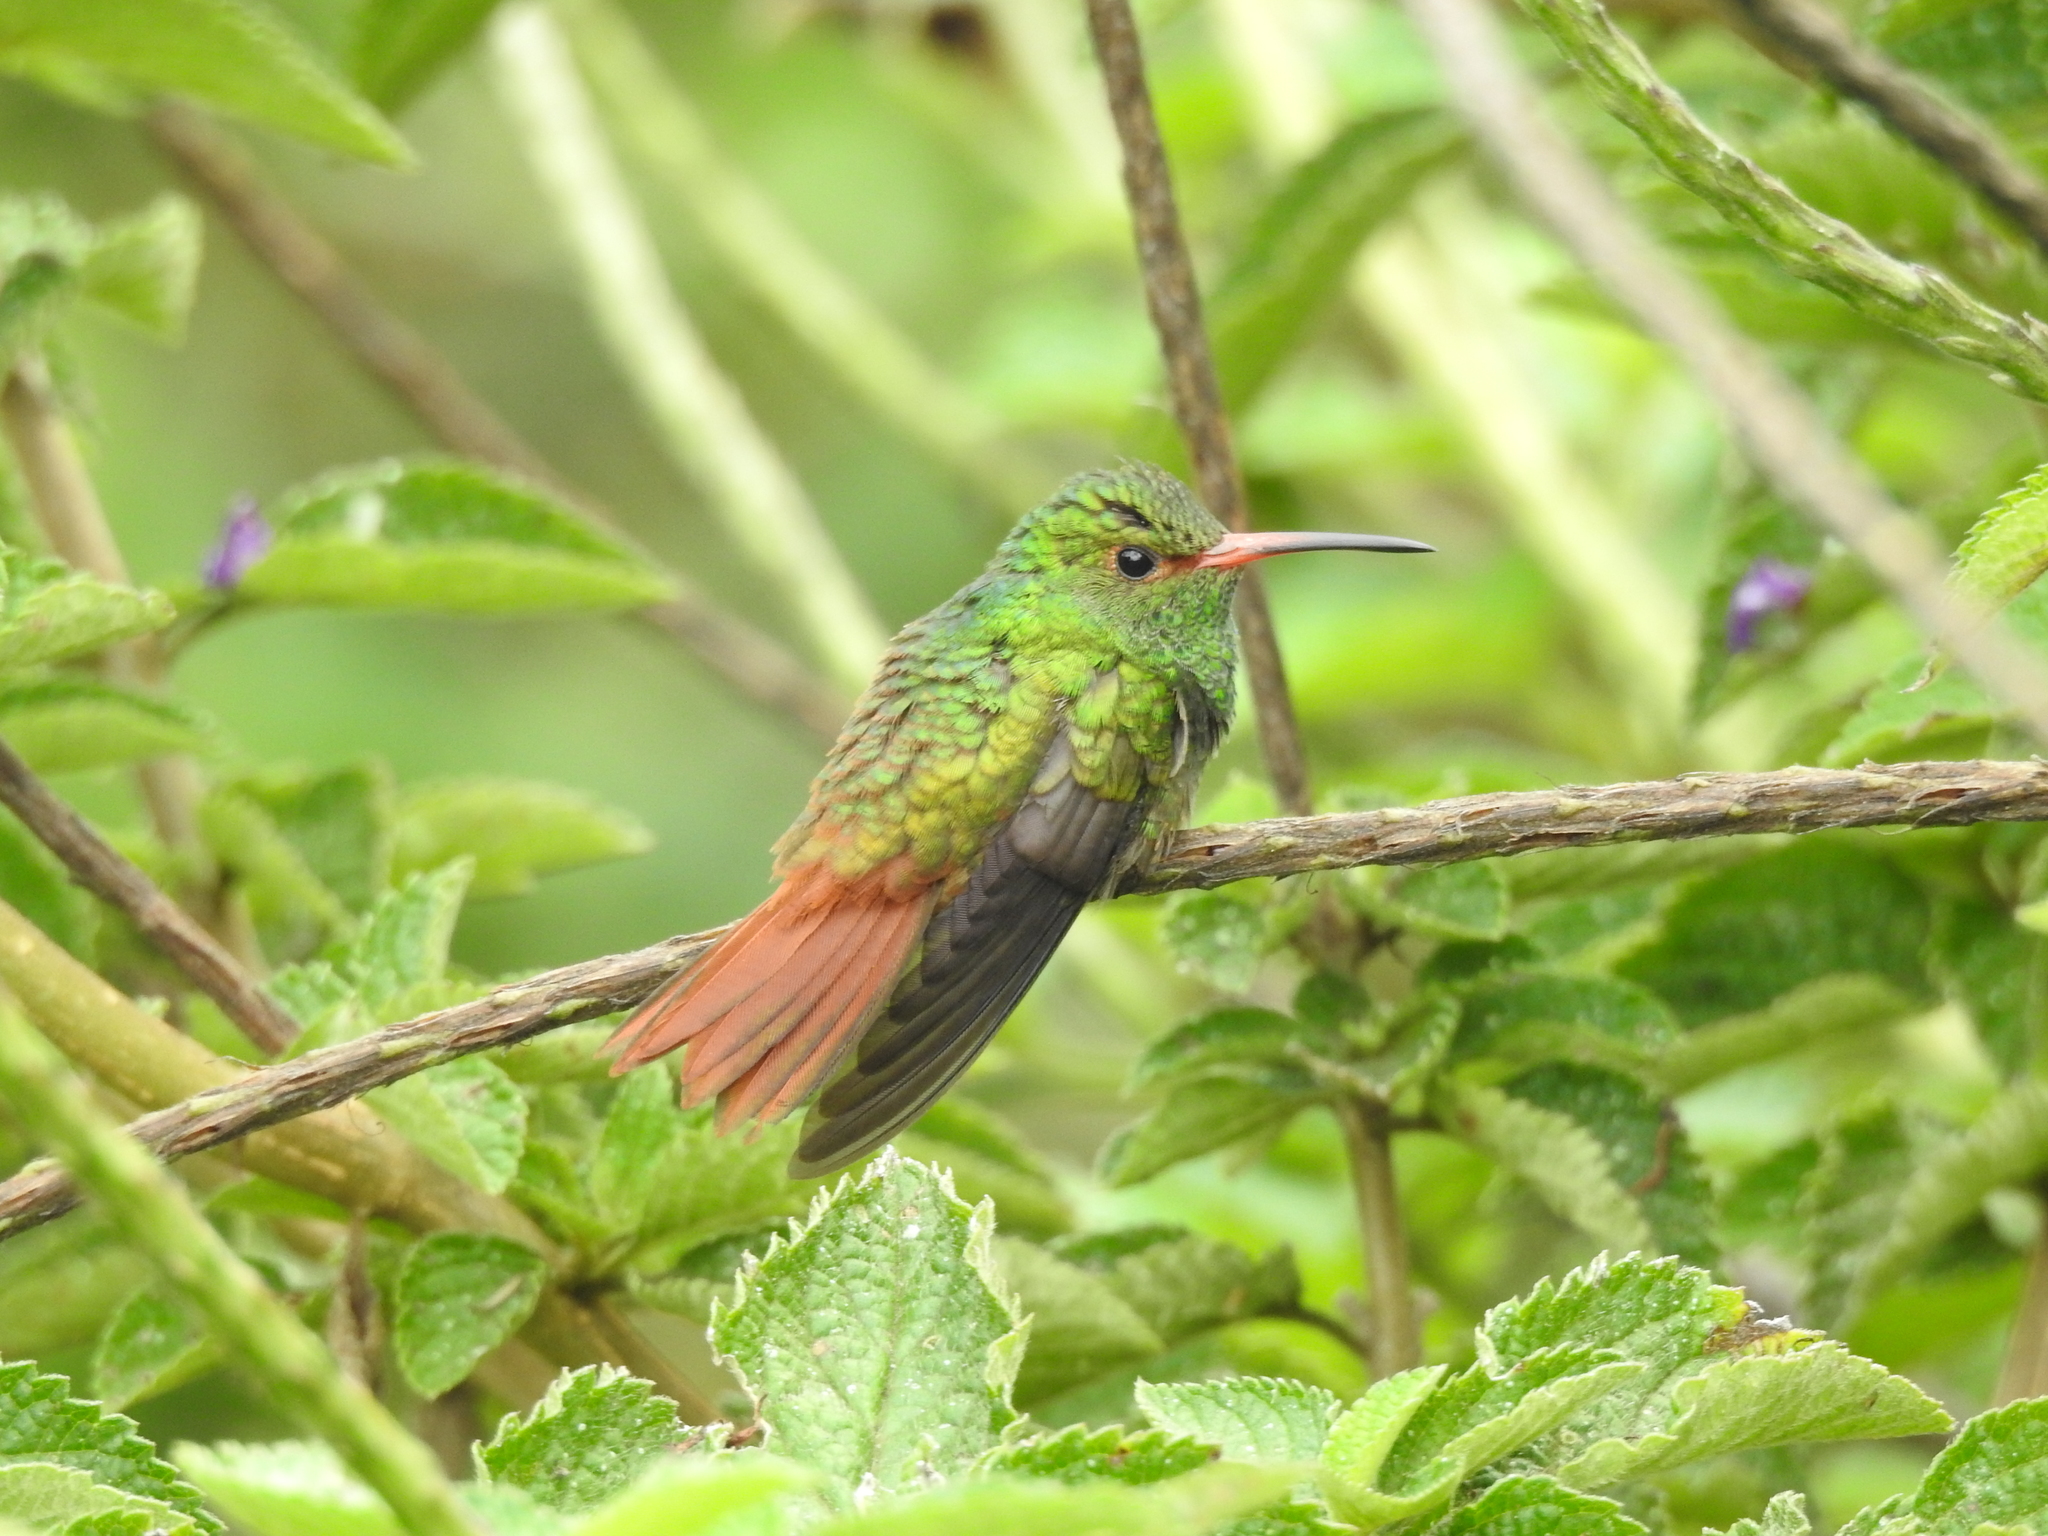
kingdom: Animalia
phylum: Chordata
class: Aves
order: Apodiformes
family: Trochilidae
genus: Amazilia
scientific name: Amazilia tzacatl
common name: Rufous-tailed hummingbird
